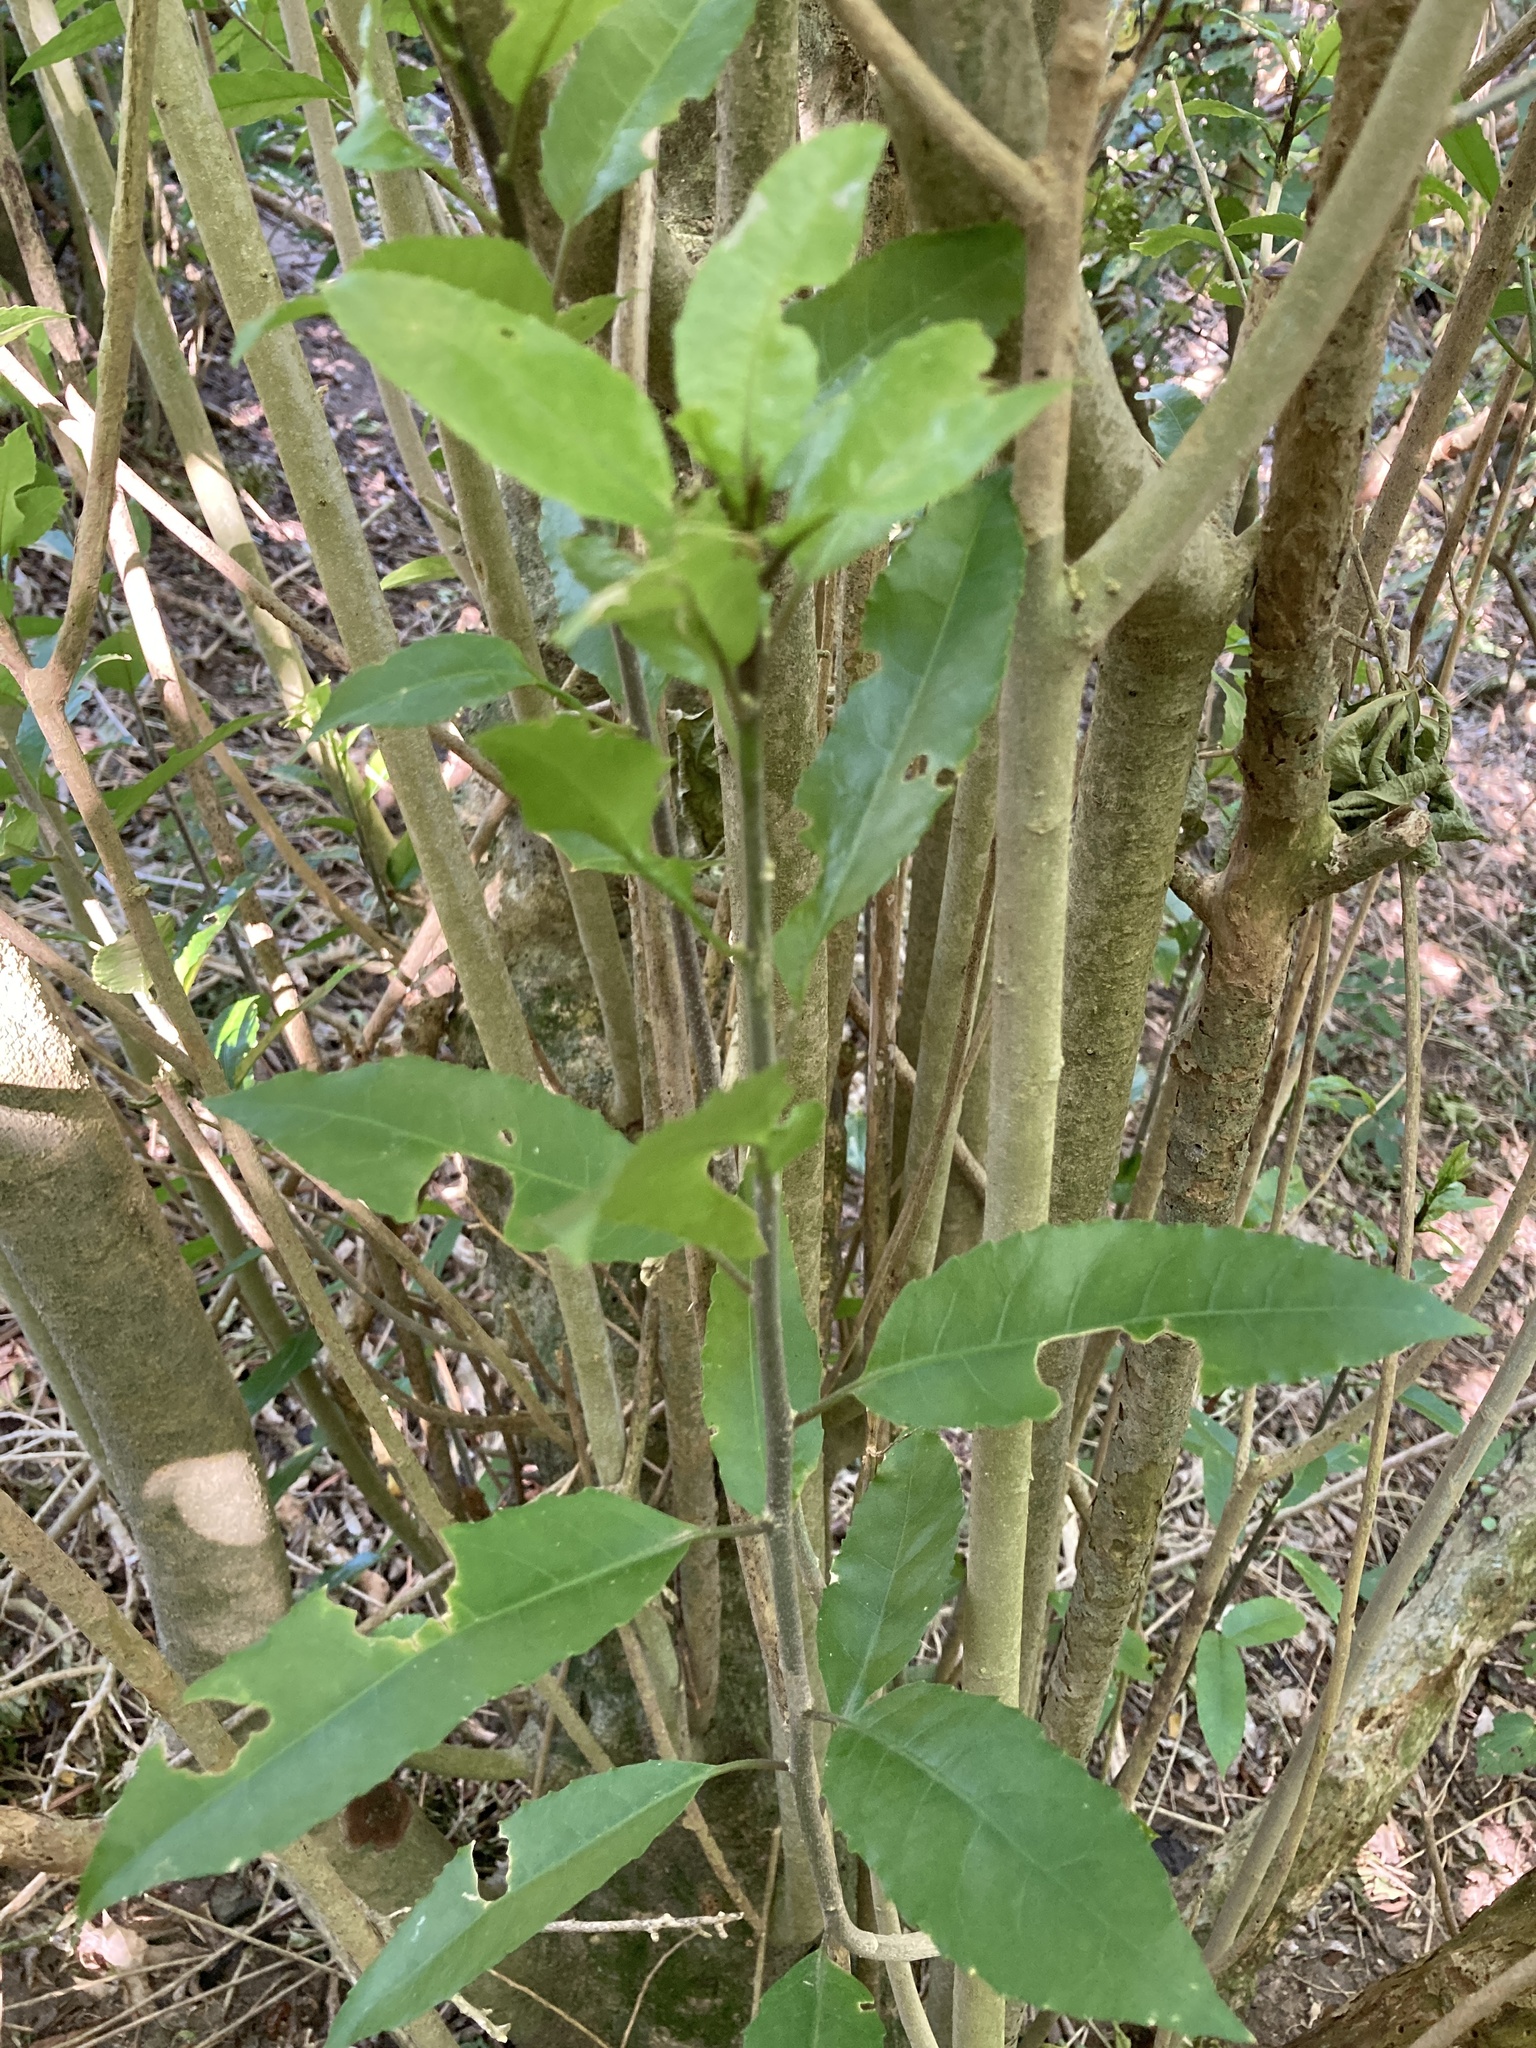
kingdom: Plantae
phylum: Tracheophyta
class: Magnoliopsida
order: Malpighiales
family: Violaceae
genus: Melicytus
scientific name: Melicytus ramiflorus
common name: Mahoe
